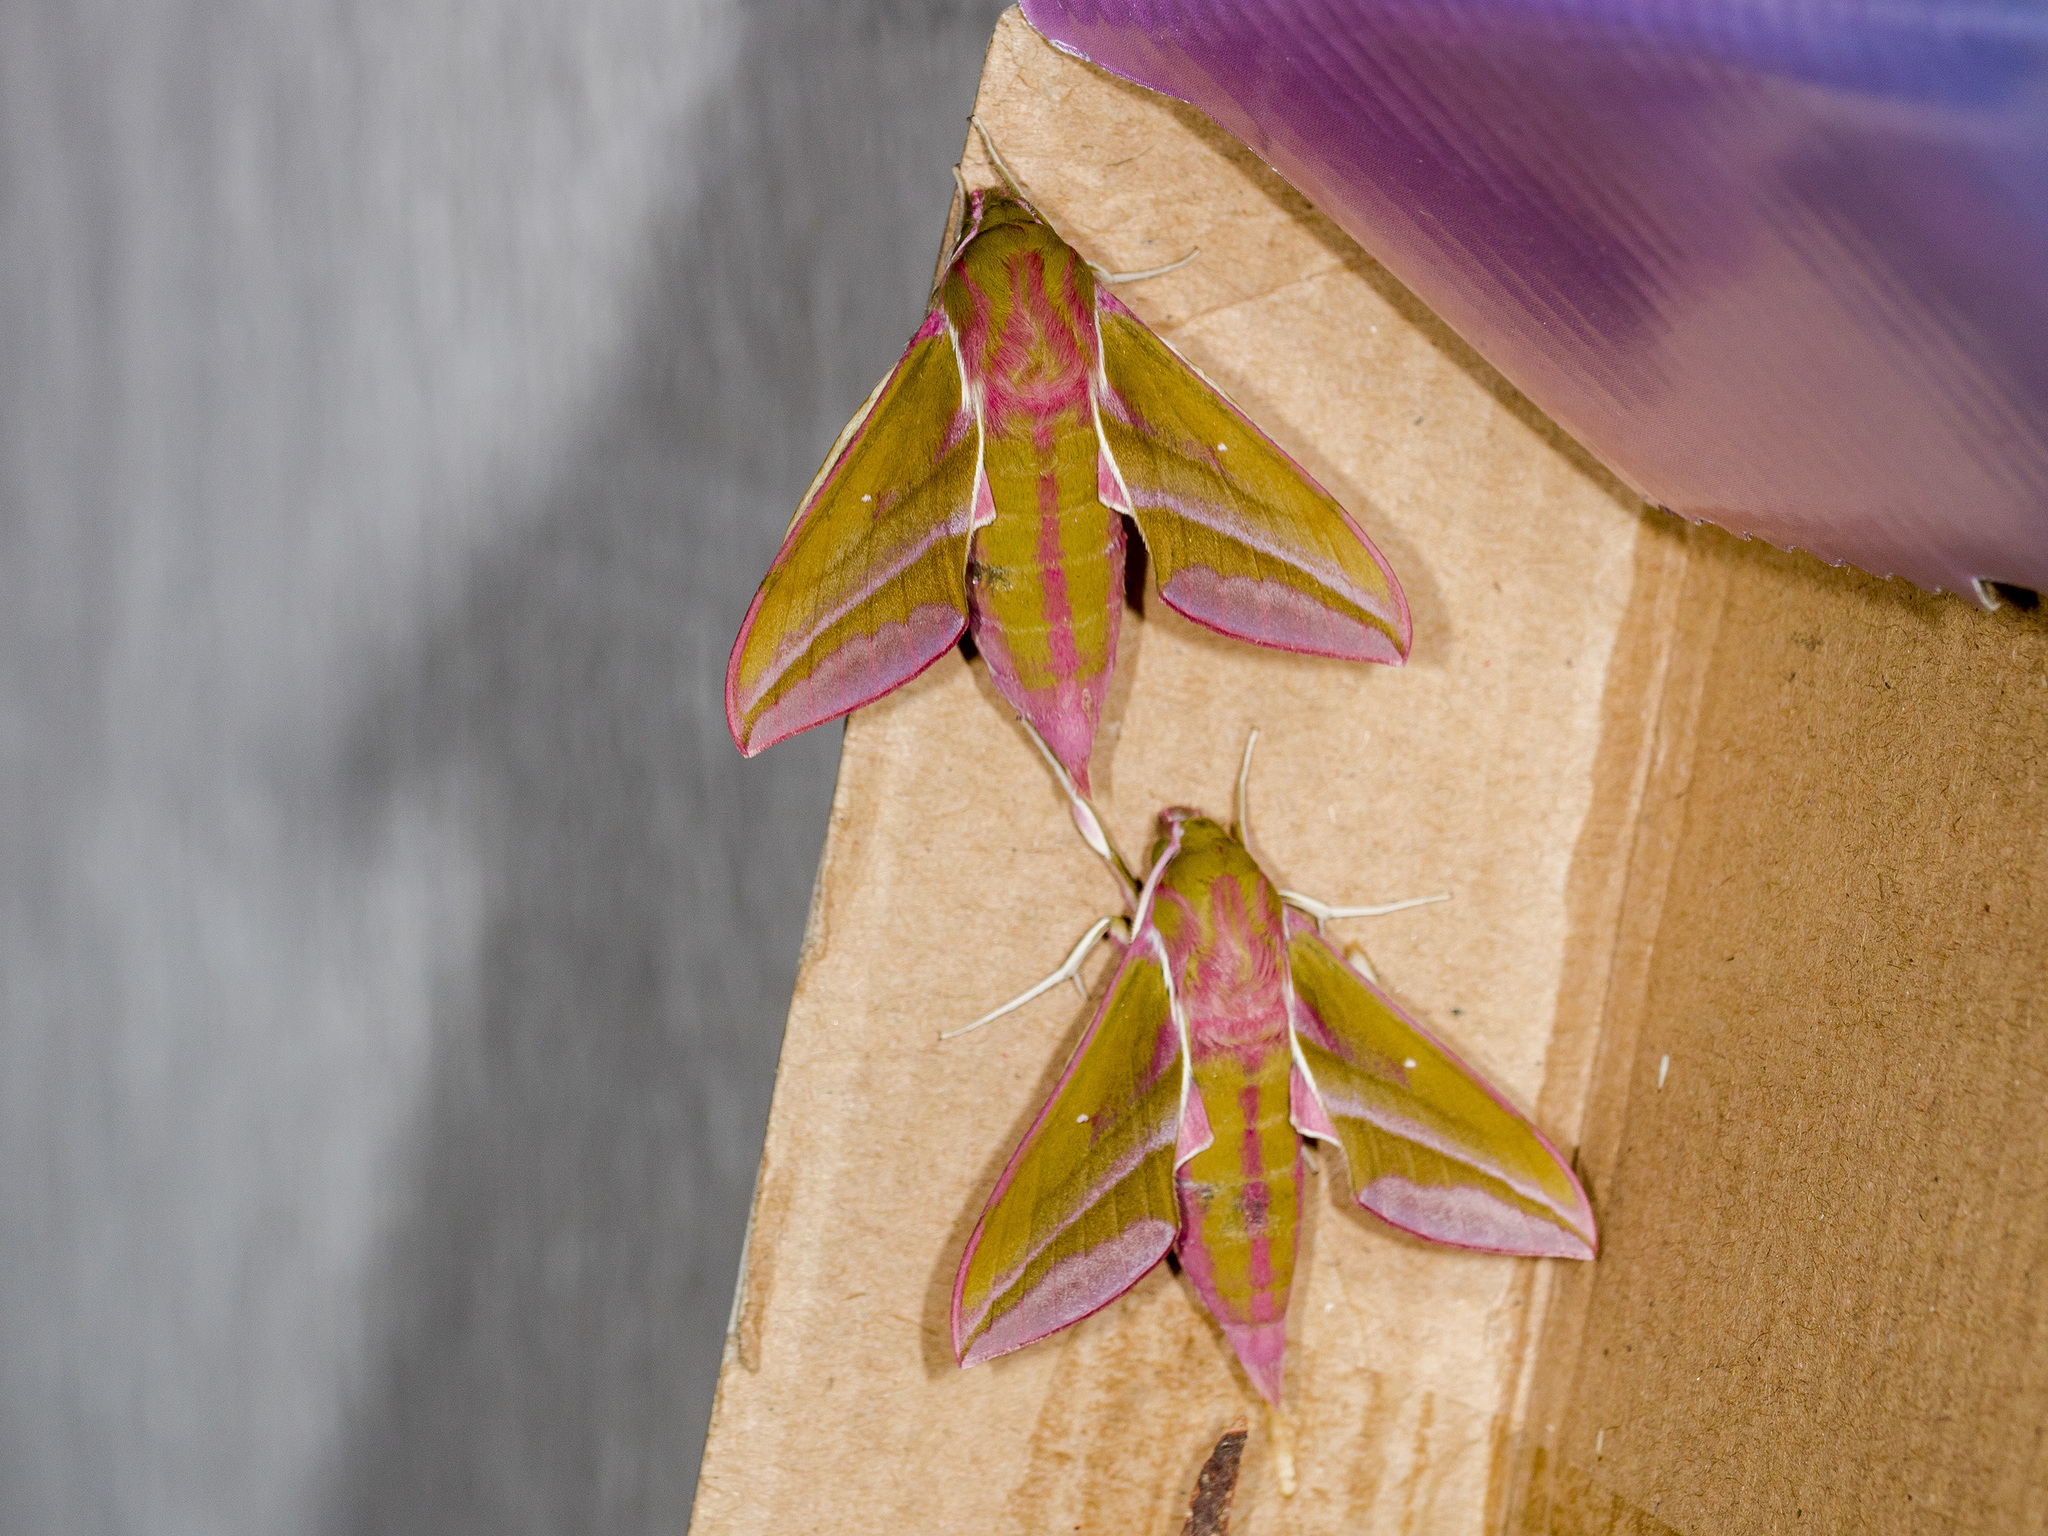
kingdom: Animalia
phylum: Arthropoda
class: Insecta
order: Lepidoptera
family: Sphingidae
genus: Deilephila
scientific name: Deilephila elpenor
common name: Elephant hawk-moth
